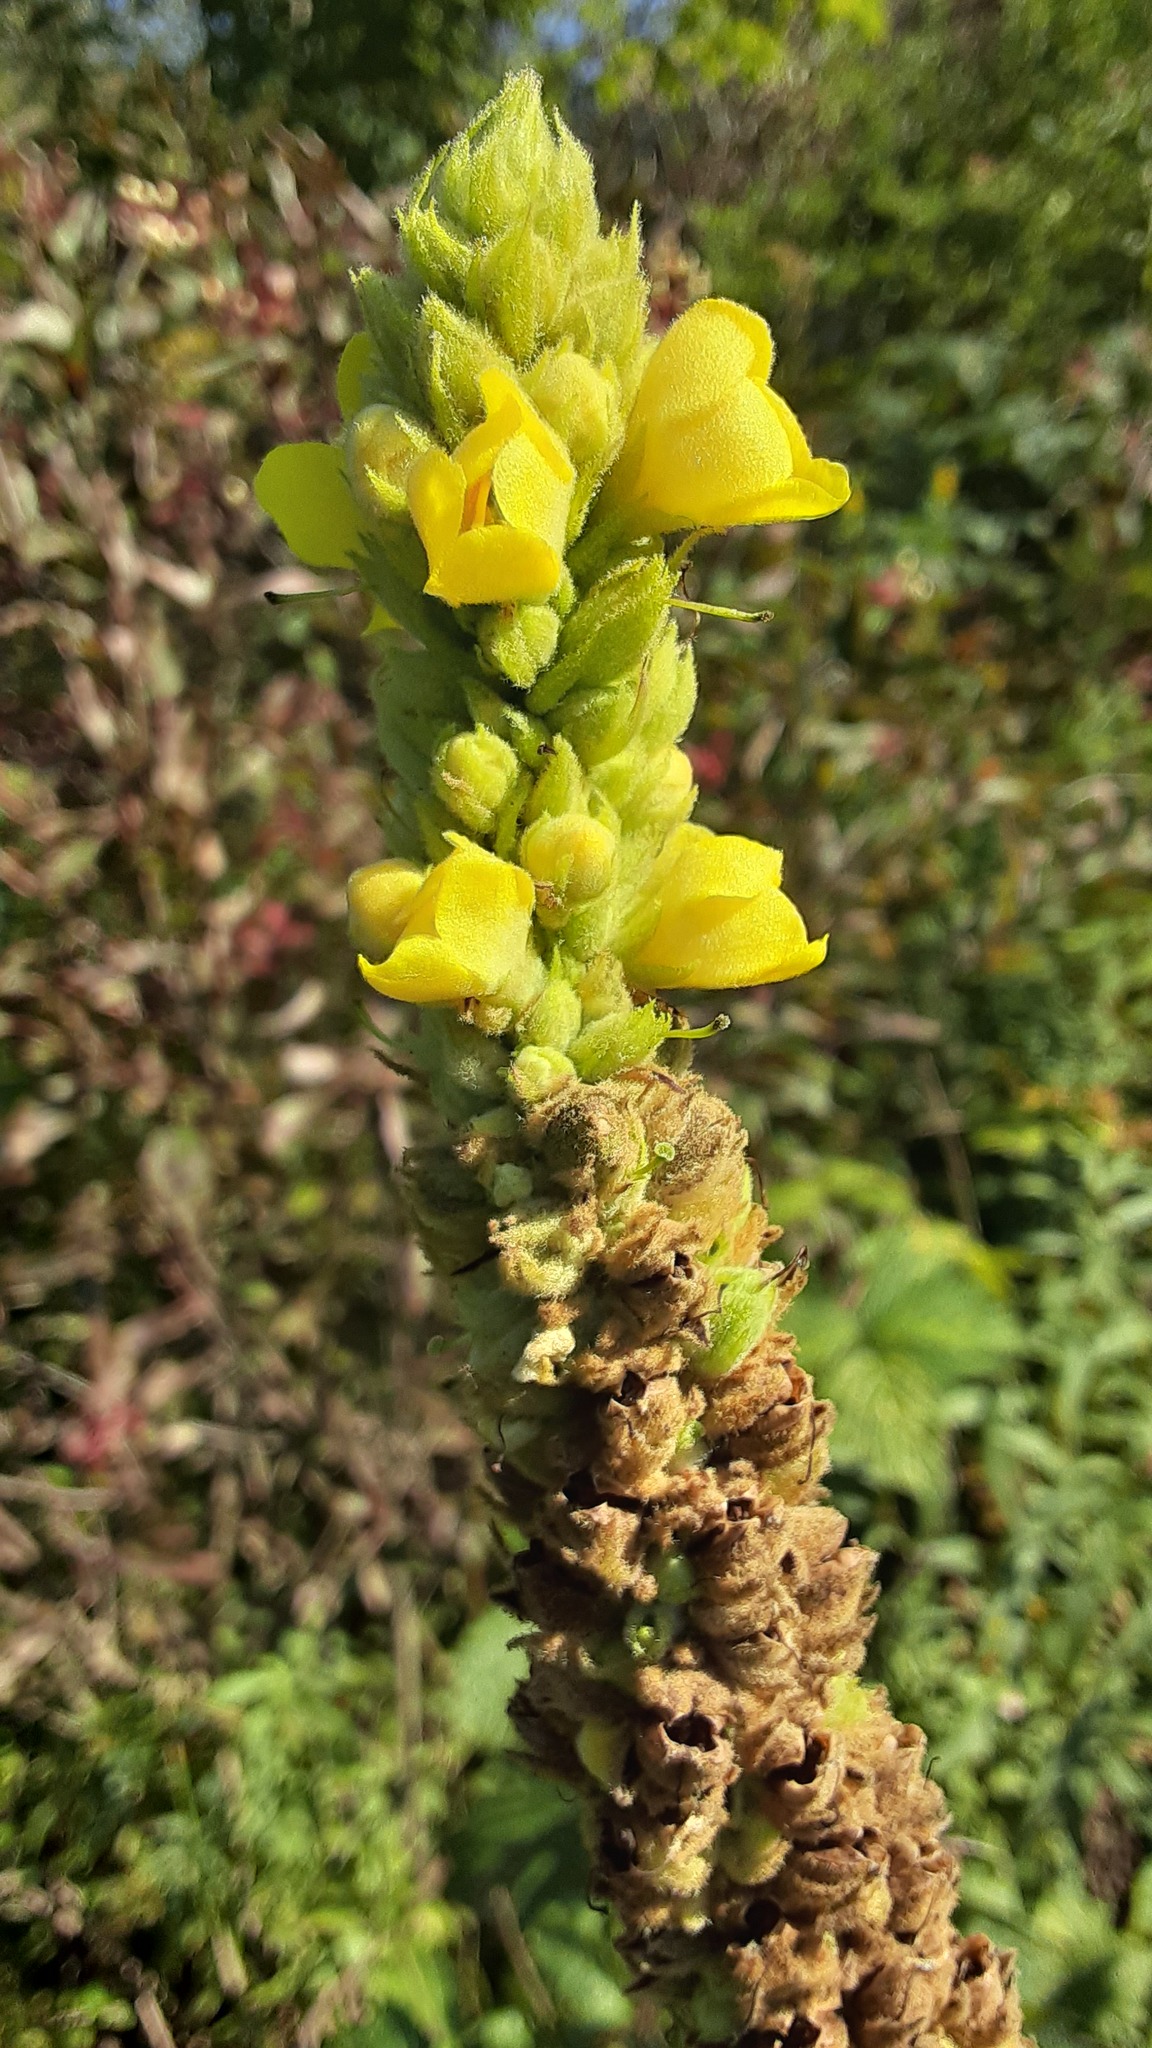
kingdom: Plantae
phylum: Tracheophyta
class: Magnoliopsida
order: Lamiales
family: Scrophulariaceae
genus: Verbascum
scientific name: Verbascum thapsus
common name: Common mullein
